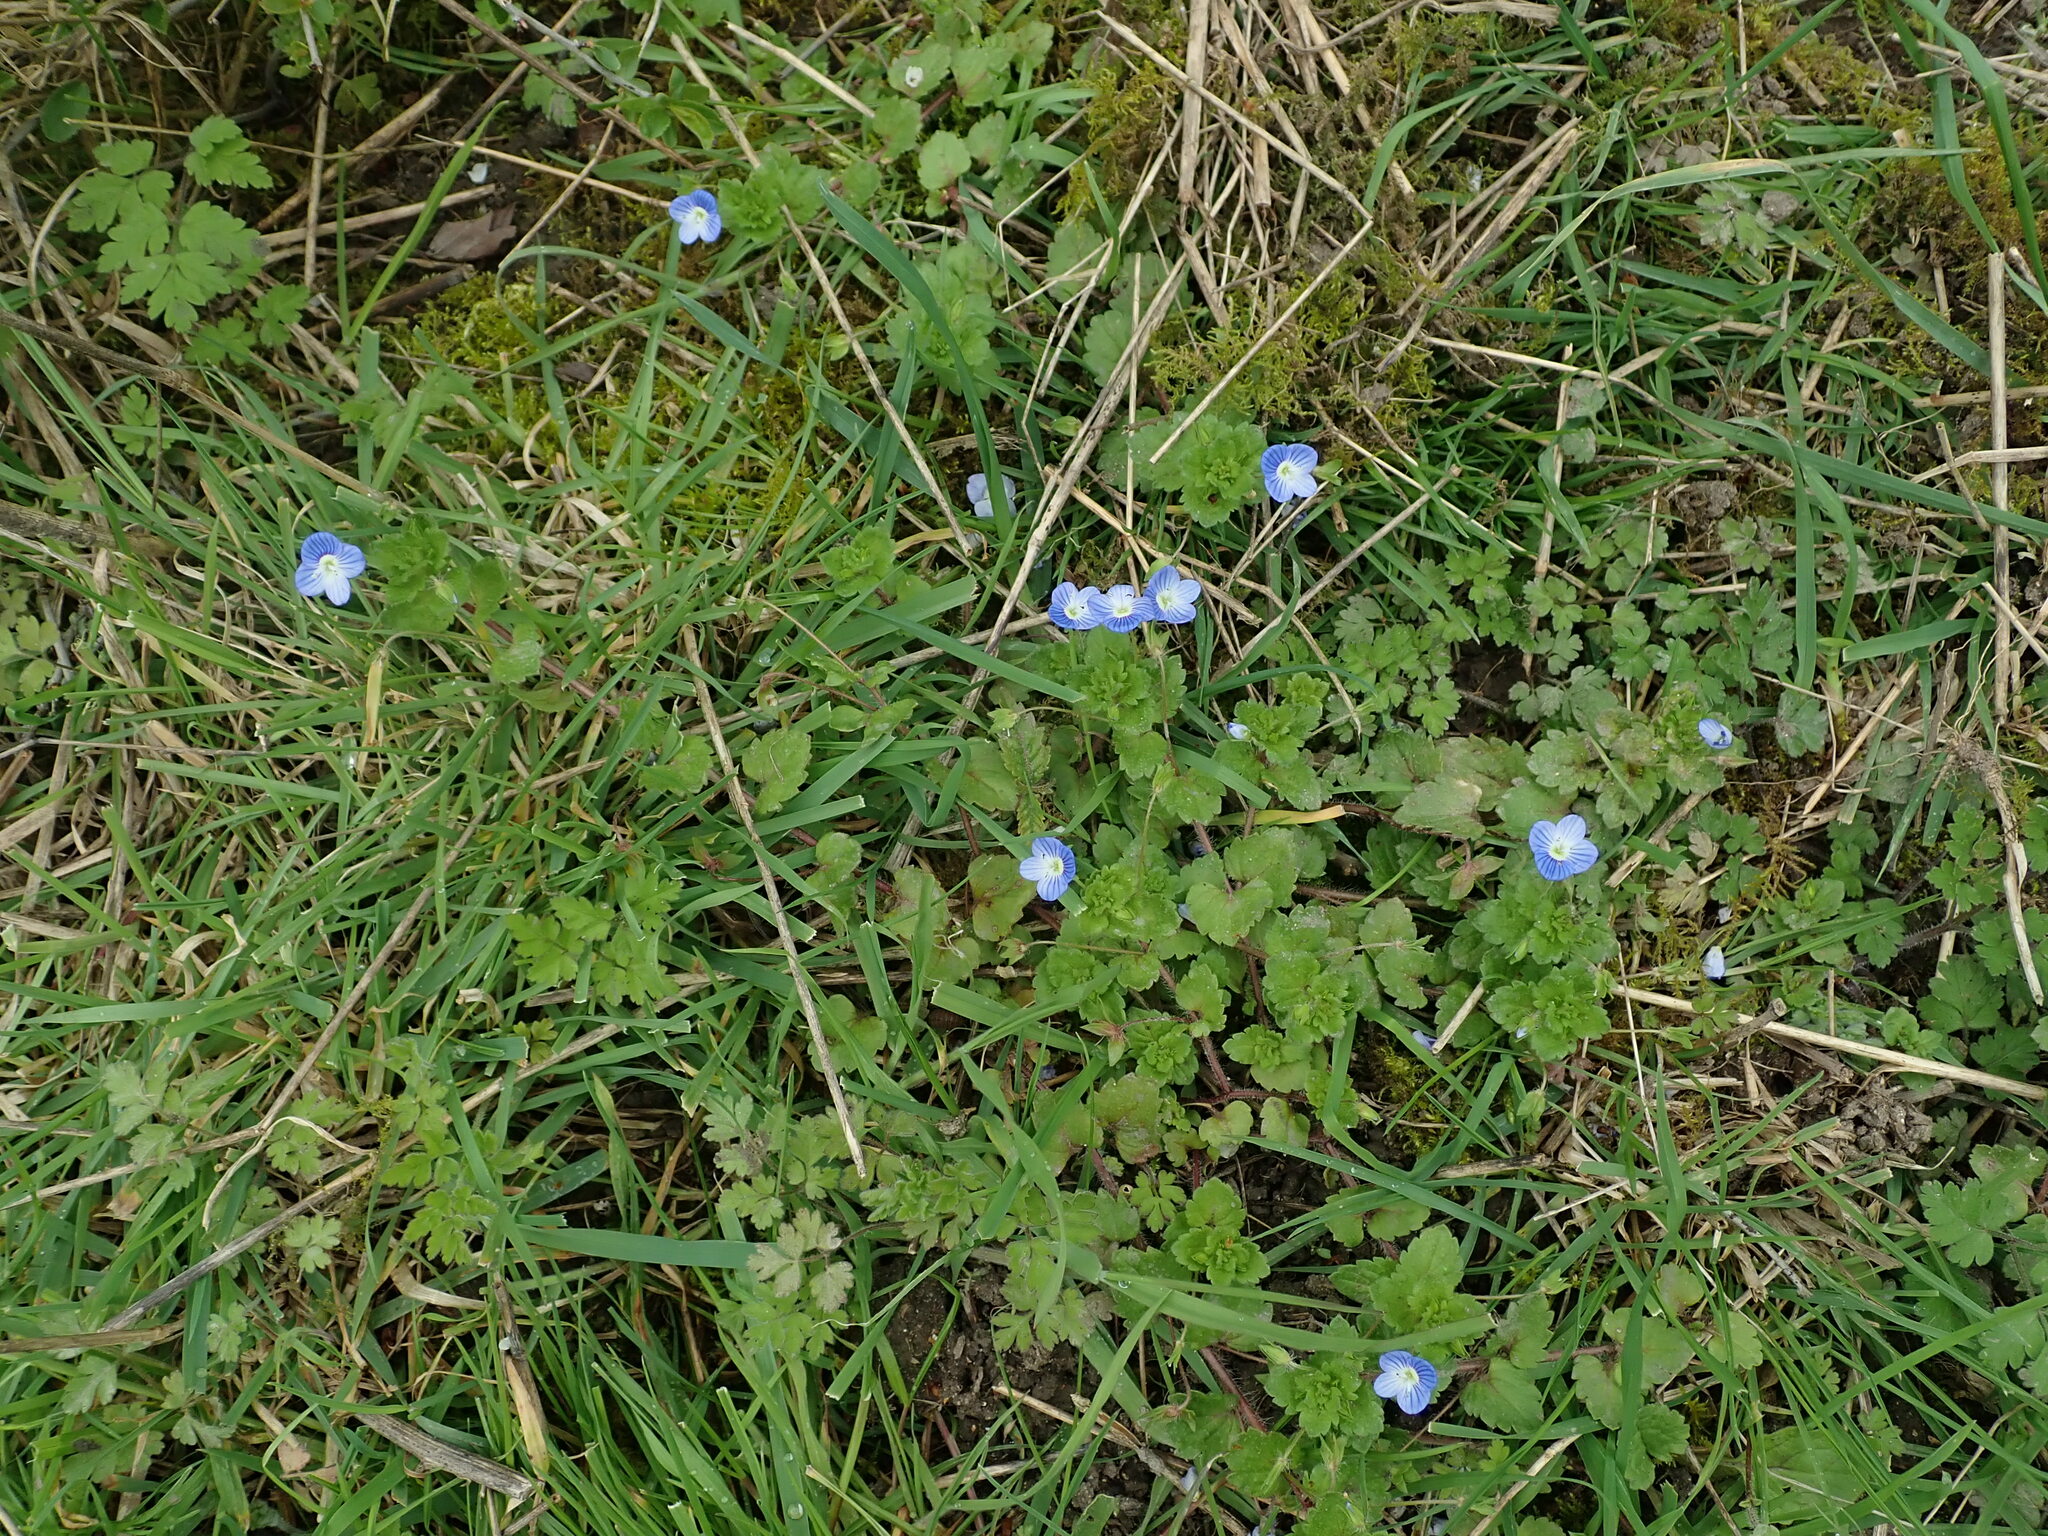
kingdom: Plantae
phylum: Tracheophyta
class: Magnoliopsida
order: Lamiales
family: Plantaginaceae
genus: Veronica
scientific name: Veronica persica
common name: Common field-speedwell
